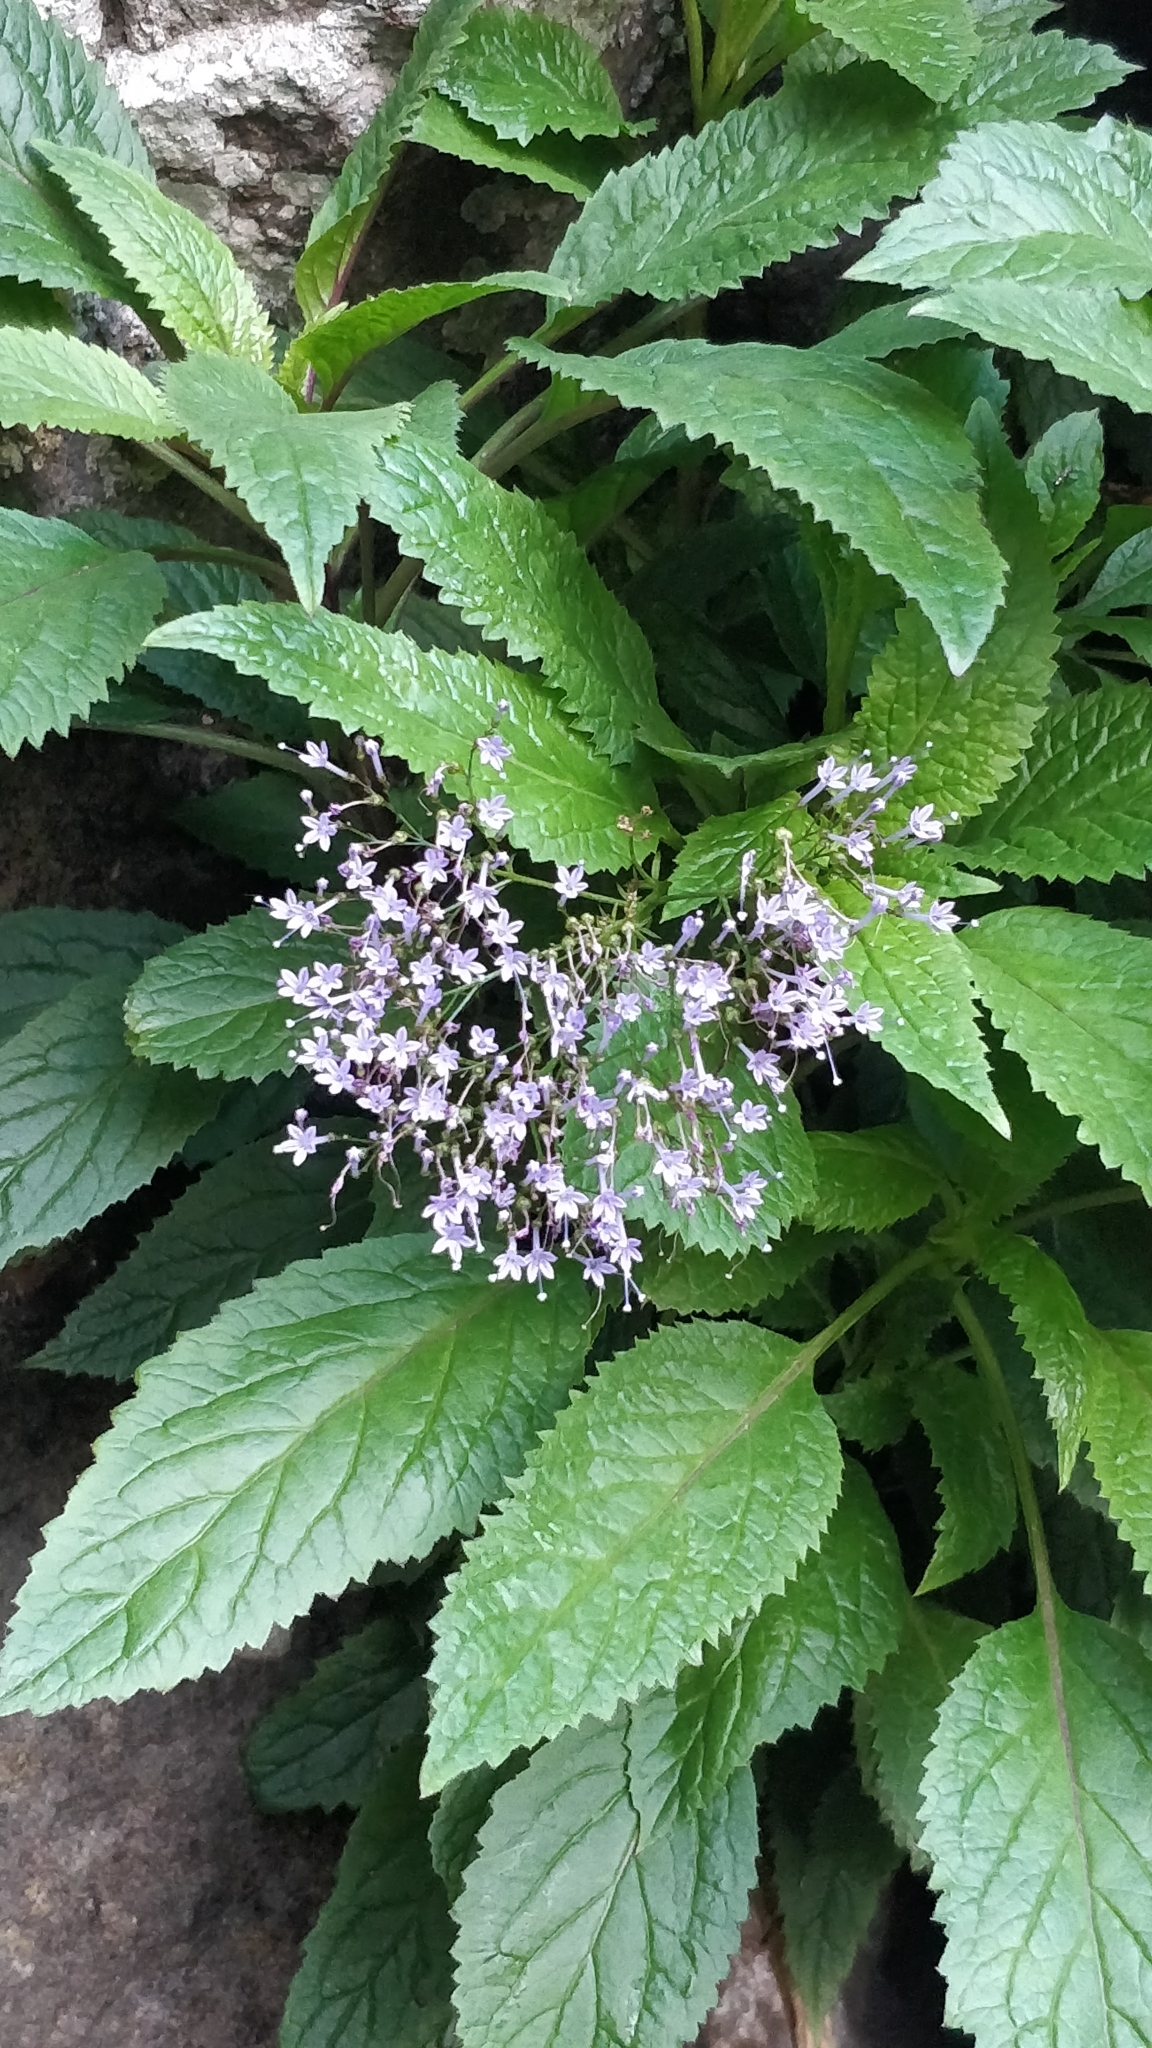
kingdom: Plantae
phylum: Tracheophyta
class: Magnoliopsida
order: Asterales
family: Campanulaceae
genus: Trachelium
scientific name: Trachelium caeruleum
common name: Throatwort
